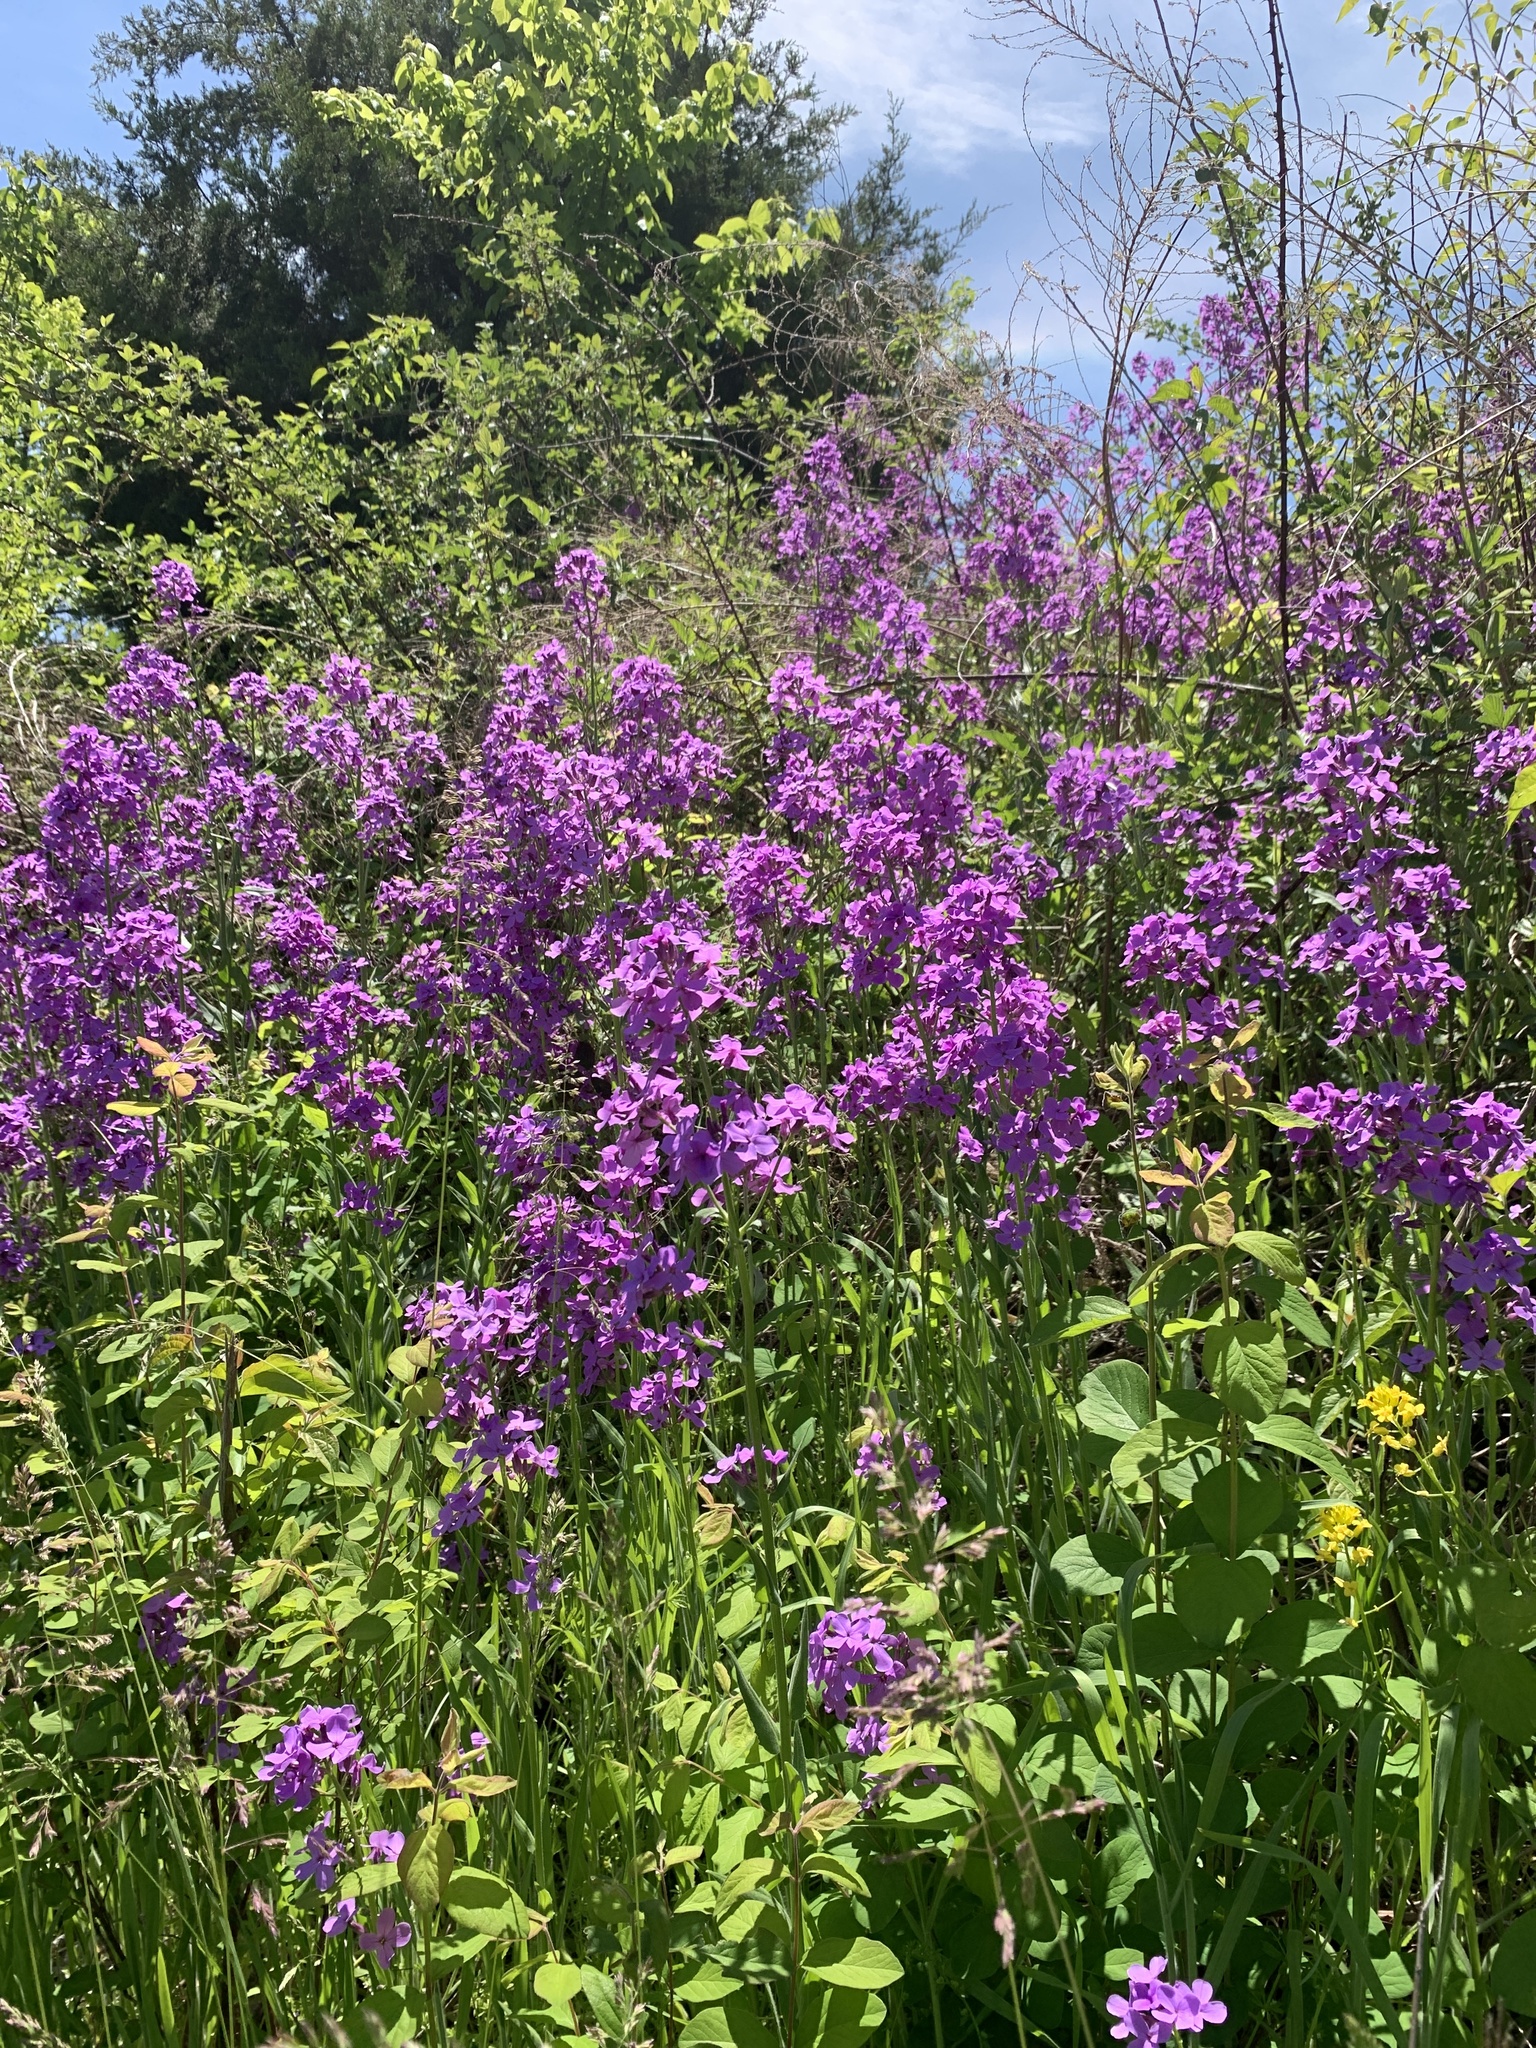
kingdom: Plantae
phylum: Tracheophyta
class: Magnoliopsida
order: Brassicales
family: Brassicaceae
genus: Hesperis
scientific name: Hesperis matronalis
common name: Dame's-violet
